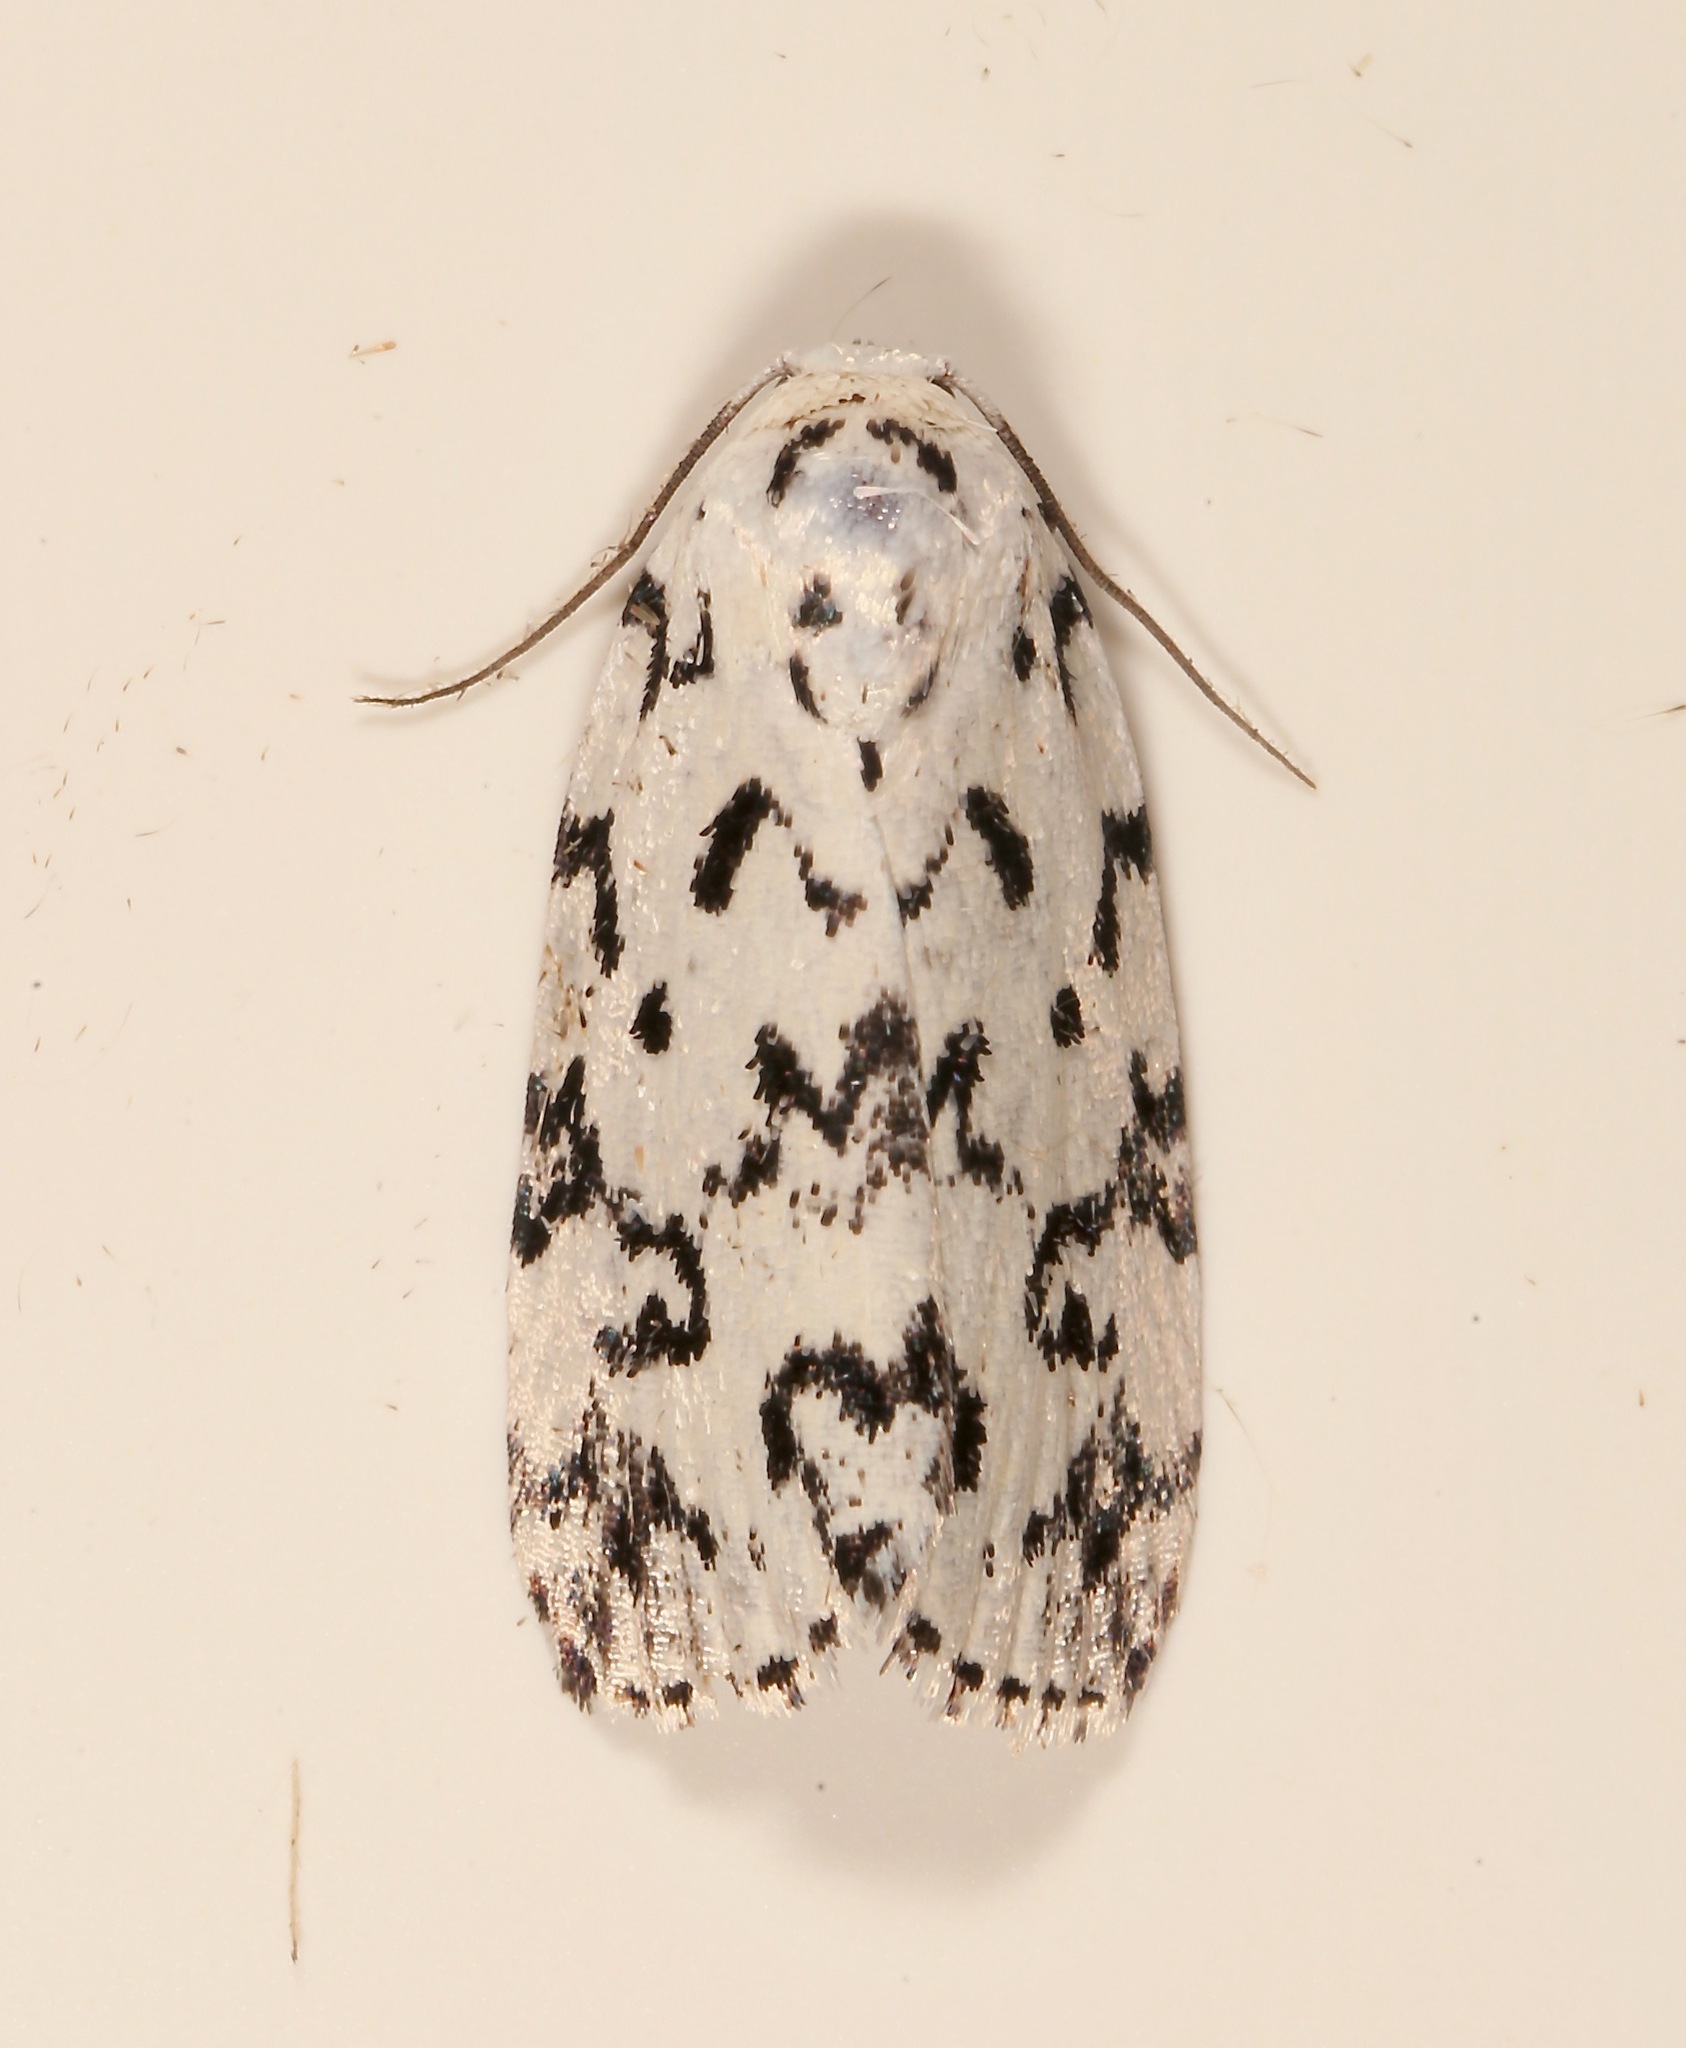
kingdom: Animalia
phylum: Arthropoda
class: Insecta
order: Lepidoptera
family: Noctuidae
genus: Polygrammate
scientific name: Polygrammate hebraeicum
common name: Hebrew moth
